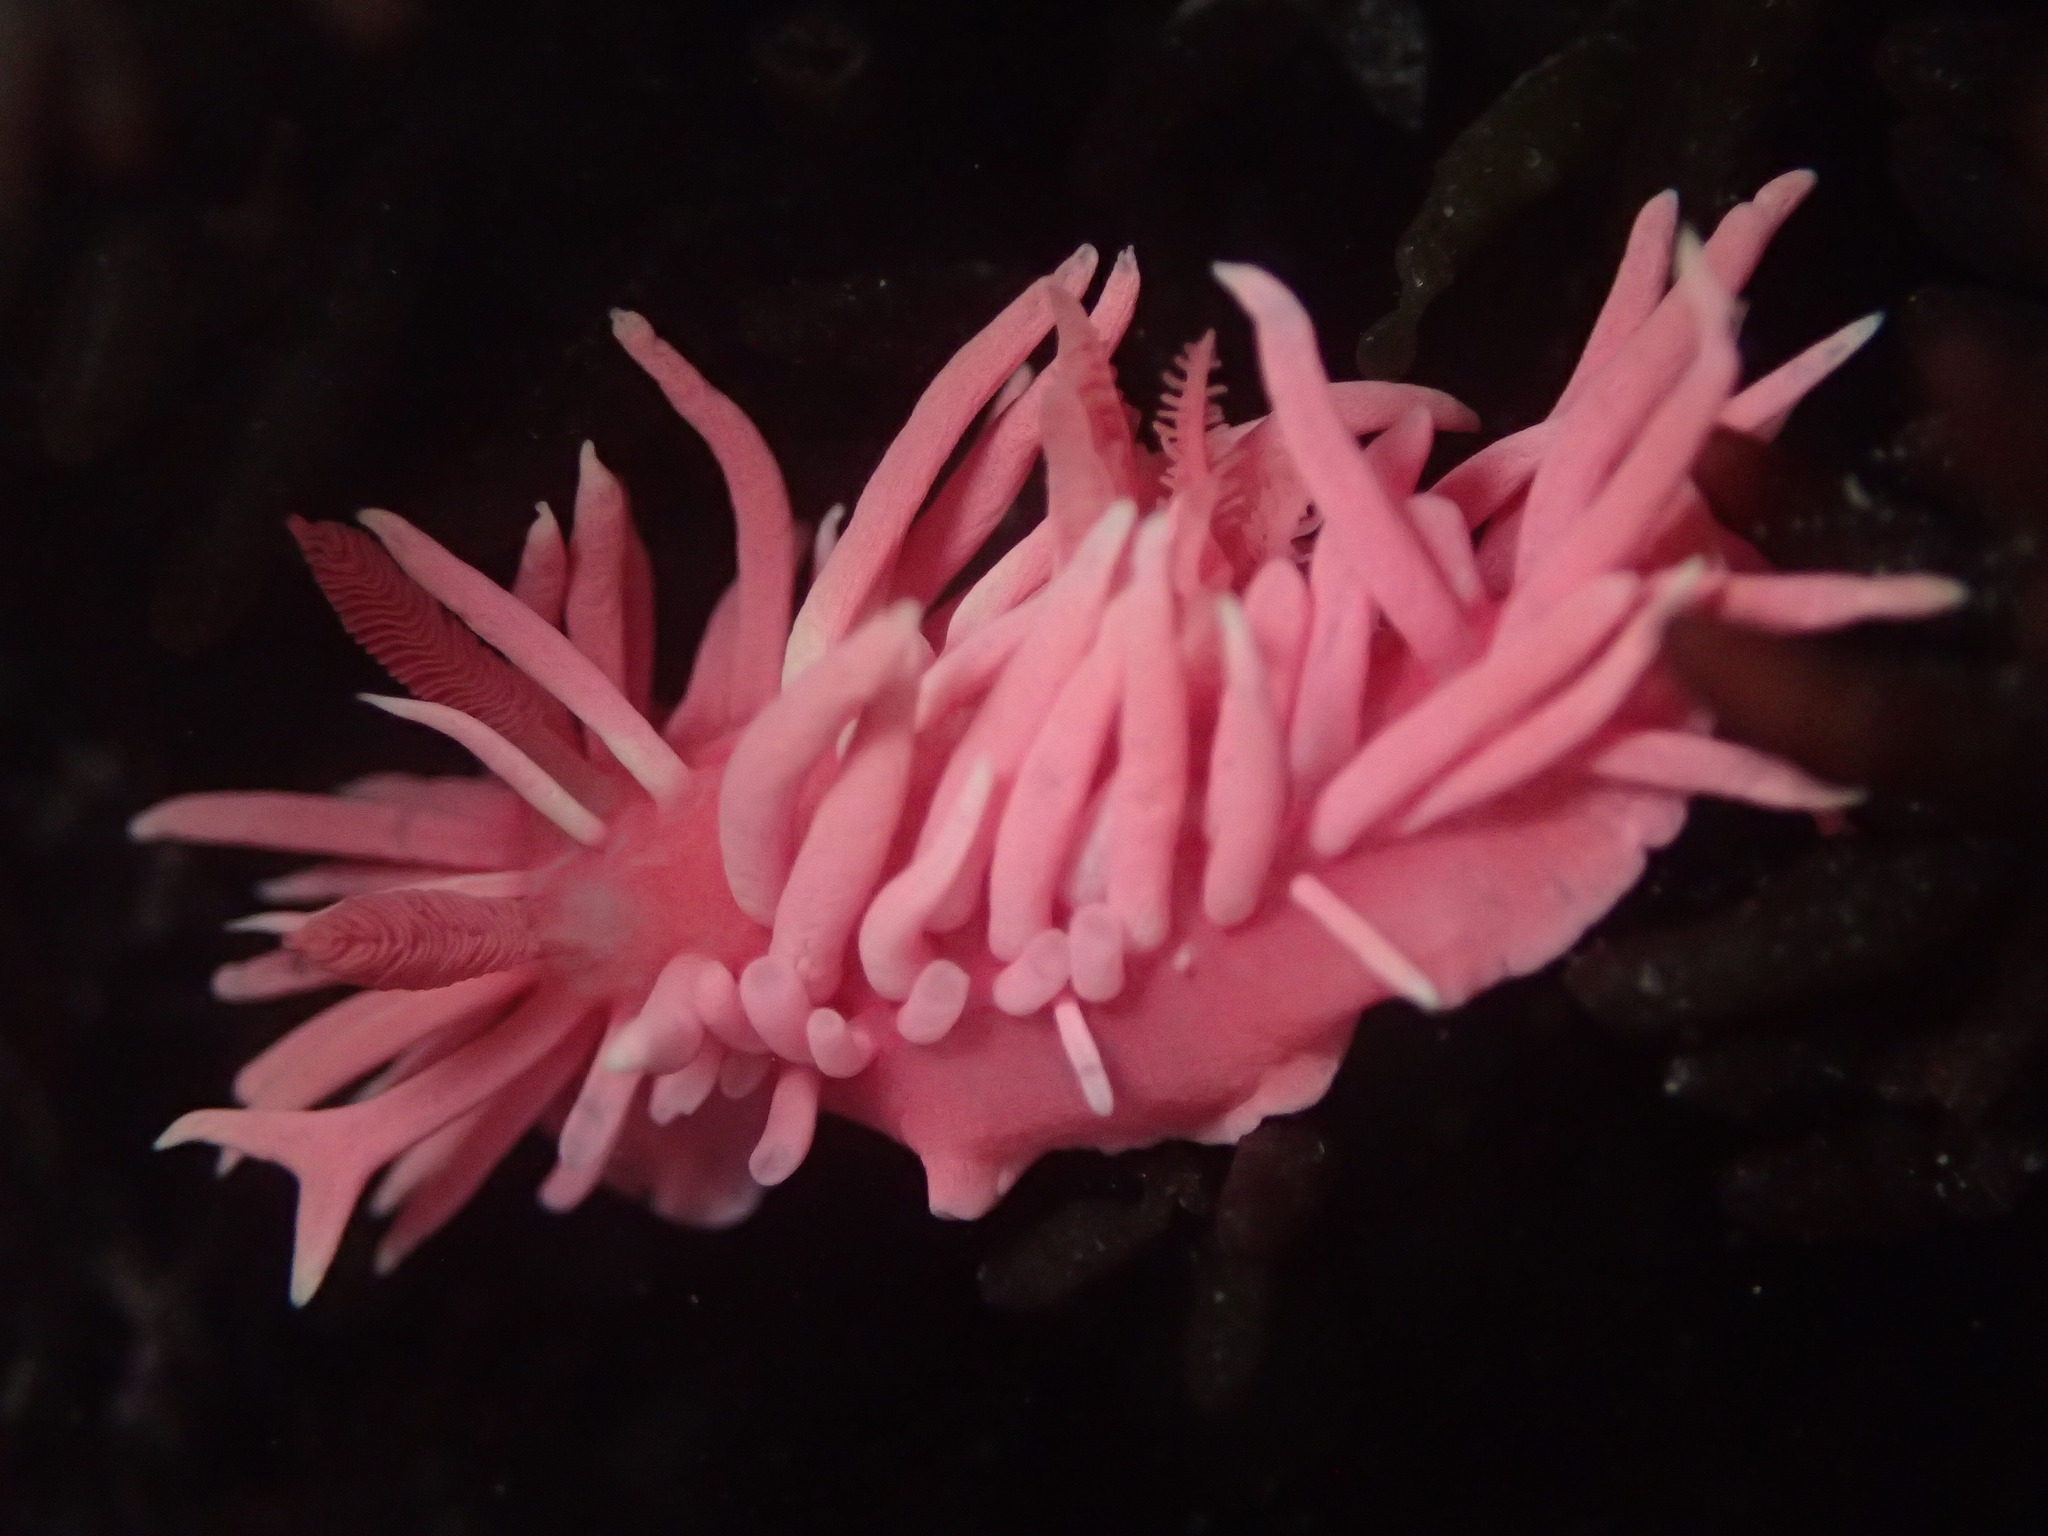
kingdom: Animalia
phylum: Mollusca
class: Gastropoda
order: Nudibranchia
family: Goniodorididae
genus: Okenia
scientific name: Okenia
